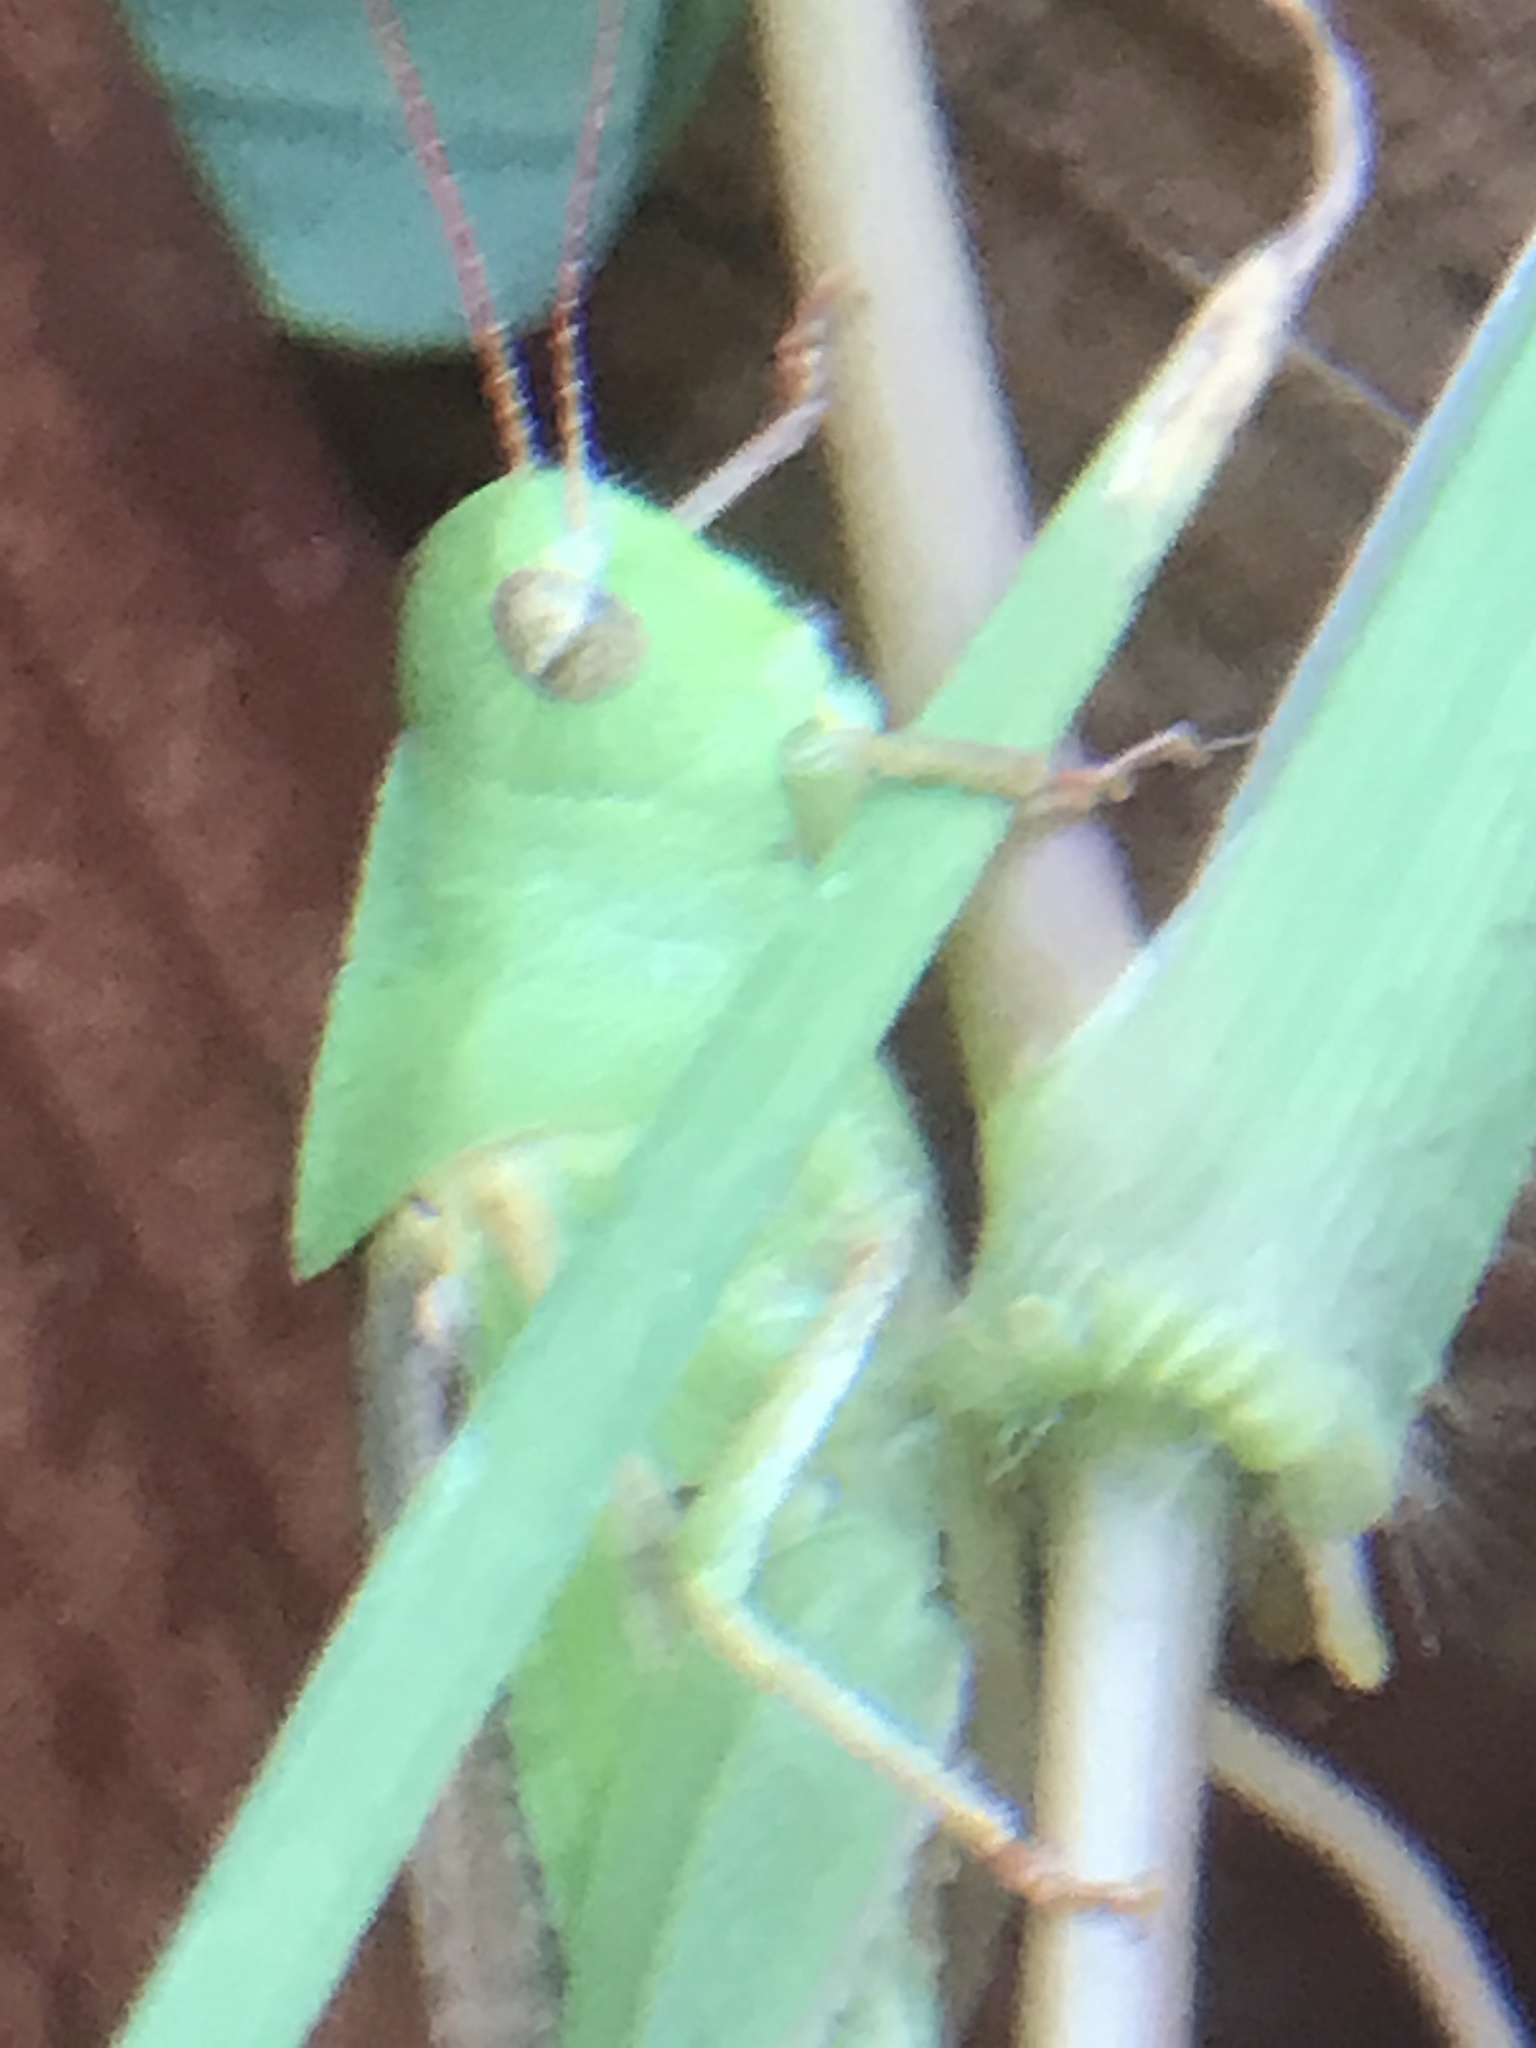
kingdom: Animalia
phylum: Arthropoda
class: Insecta
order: Orthoptera
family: Acrididae
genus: Chortophaga
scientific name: Chortophaga viridifasciata
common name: Green-striped grasshopper
